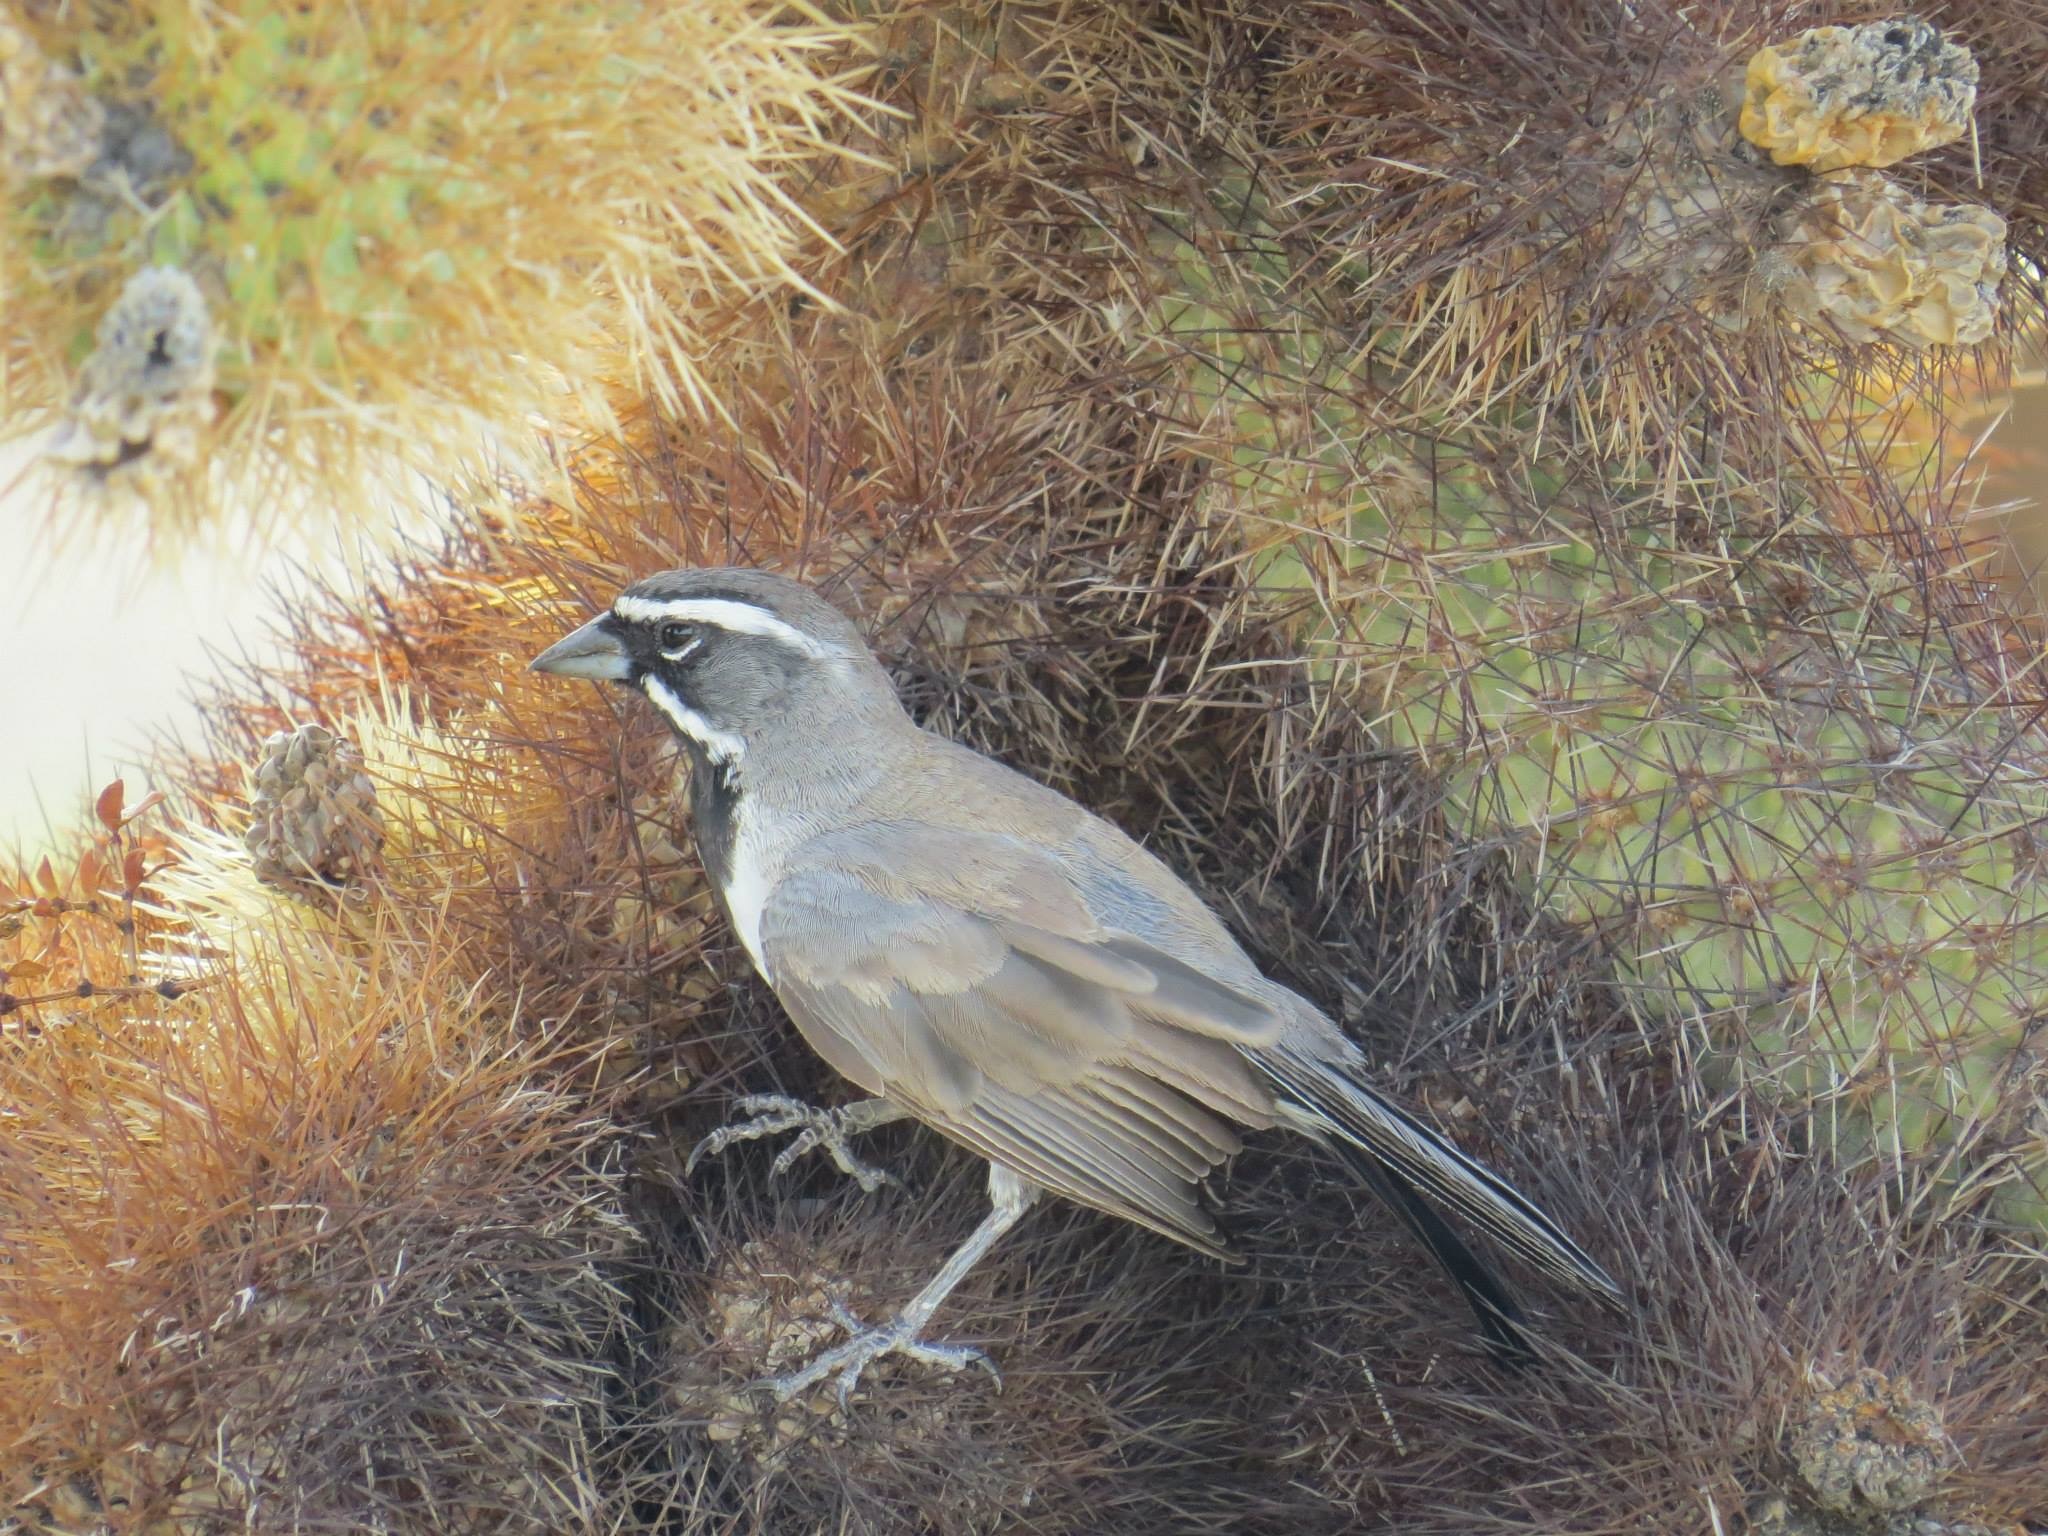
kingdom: Animalia
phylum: Chordata
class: Aves
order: Passeriformes
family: Passerellidae
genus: Amphispiza
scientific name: Amphispiza bilineata
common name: Black-throated sparrow
